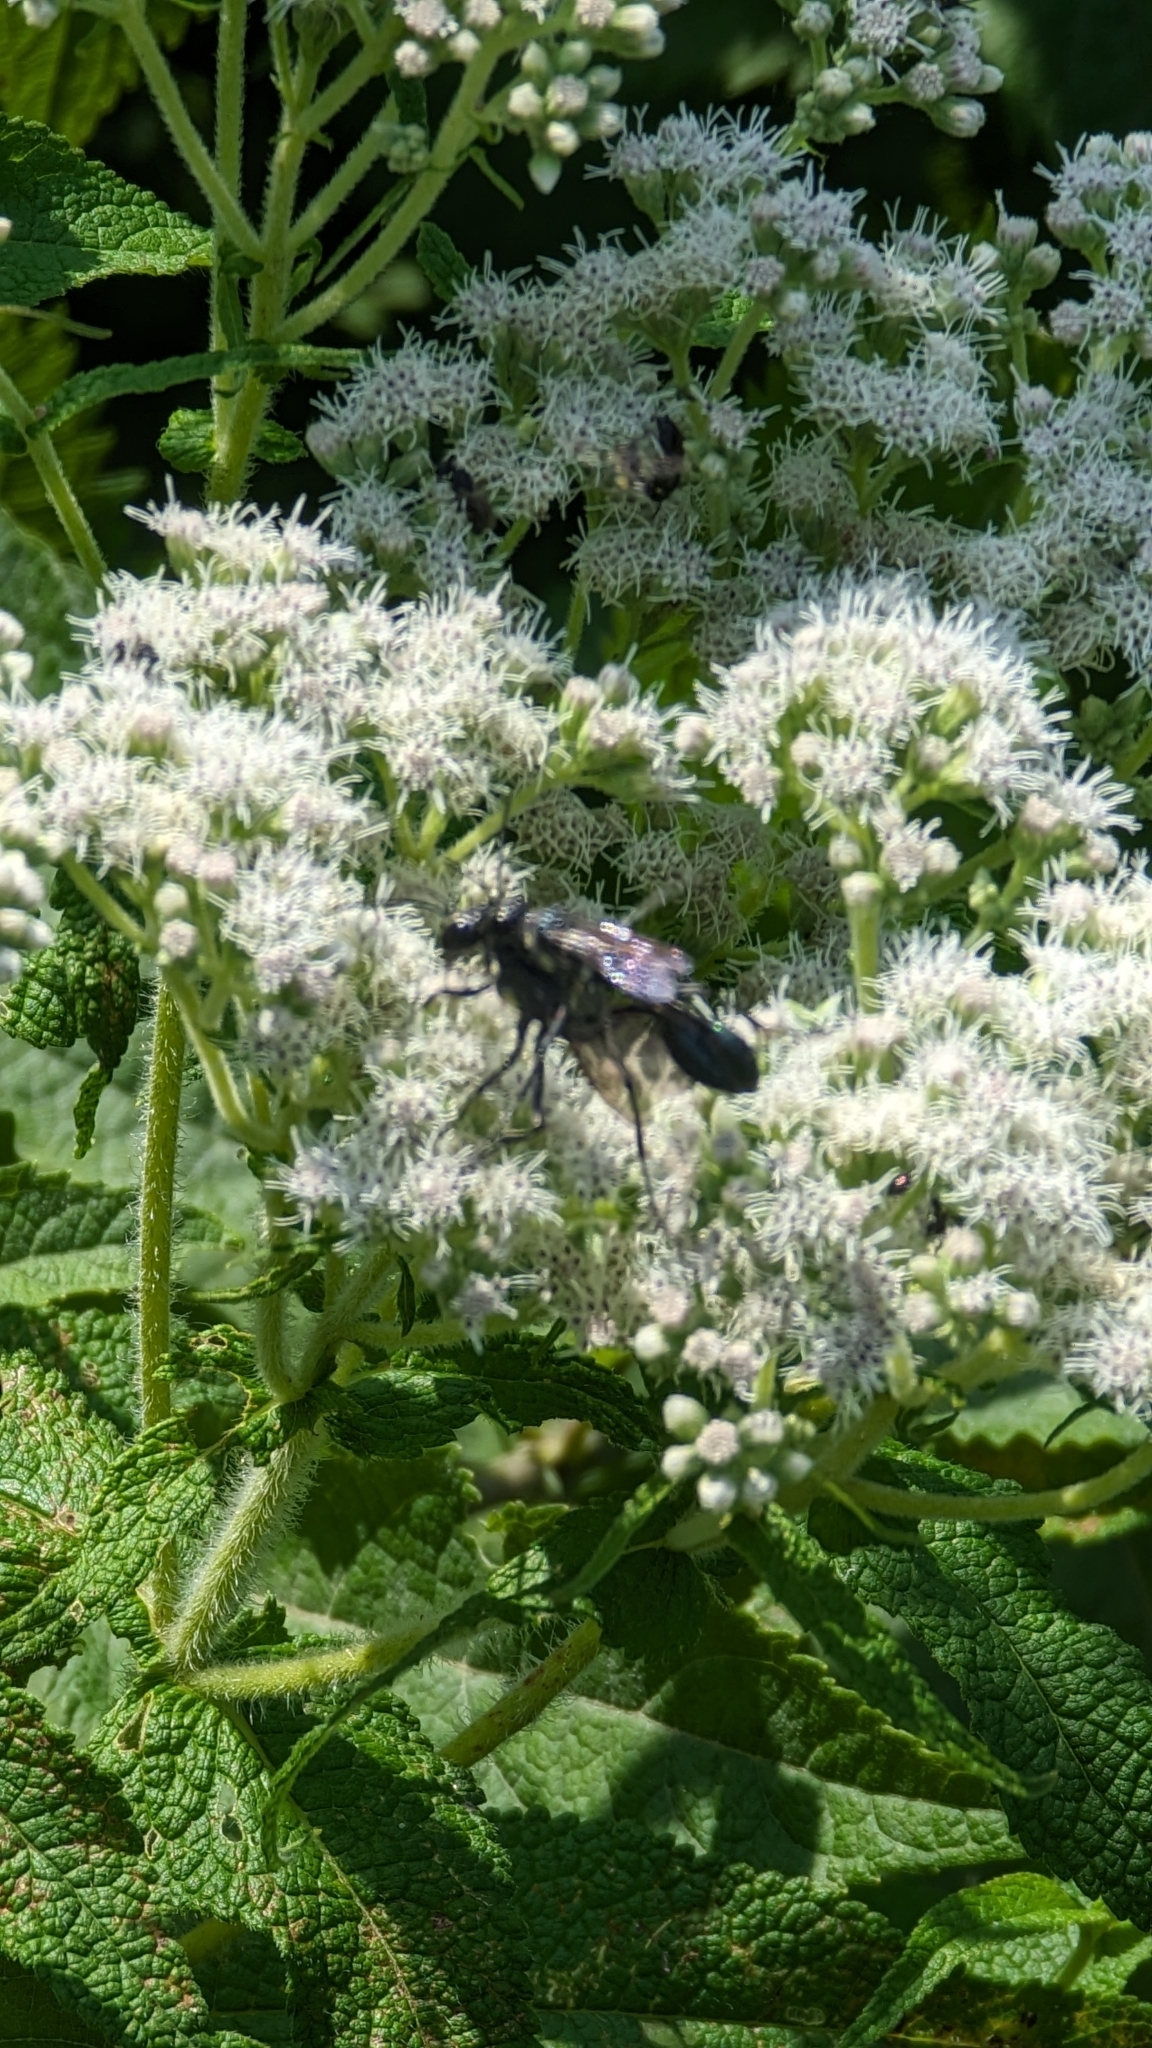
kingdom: Animalia
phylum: Arthropoda
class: Insecta
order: Hymenoptera
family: Sphecidae
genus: Eremnophila
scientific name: Eremnophila aureonotata
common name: Gold-marked thread-waisted wasp
